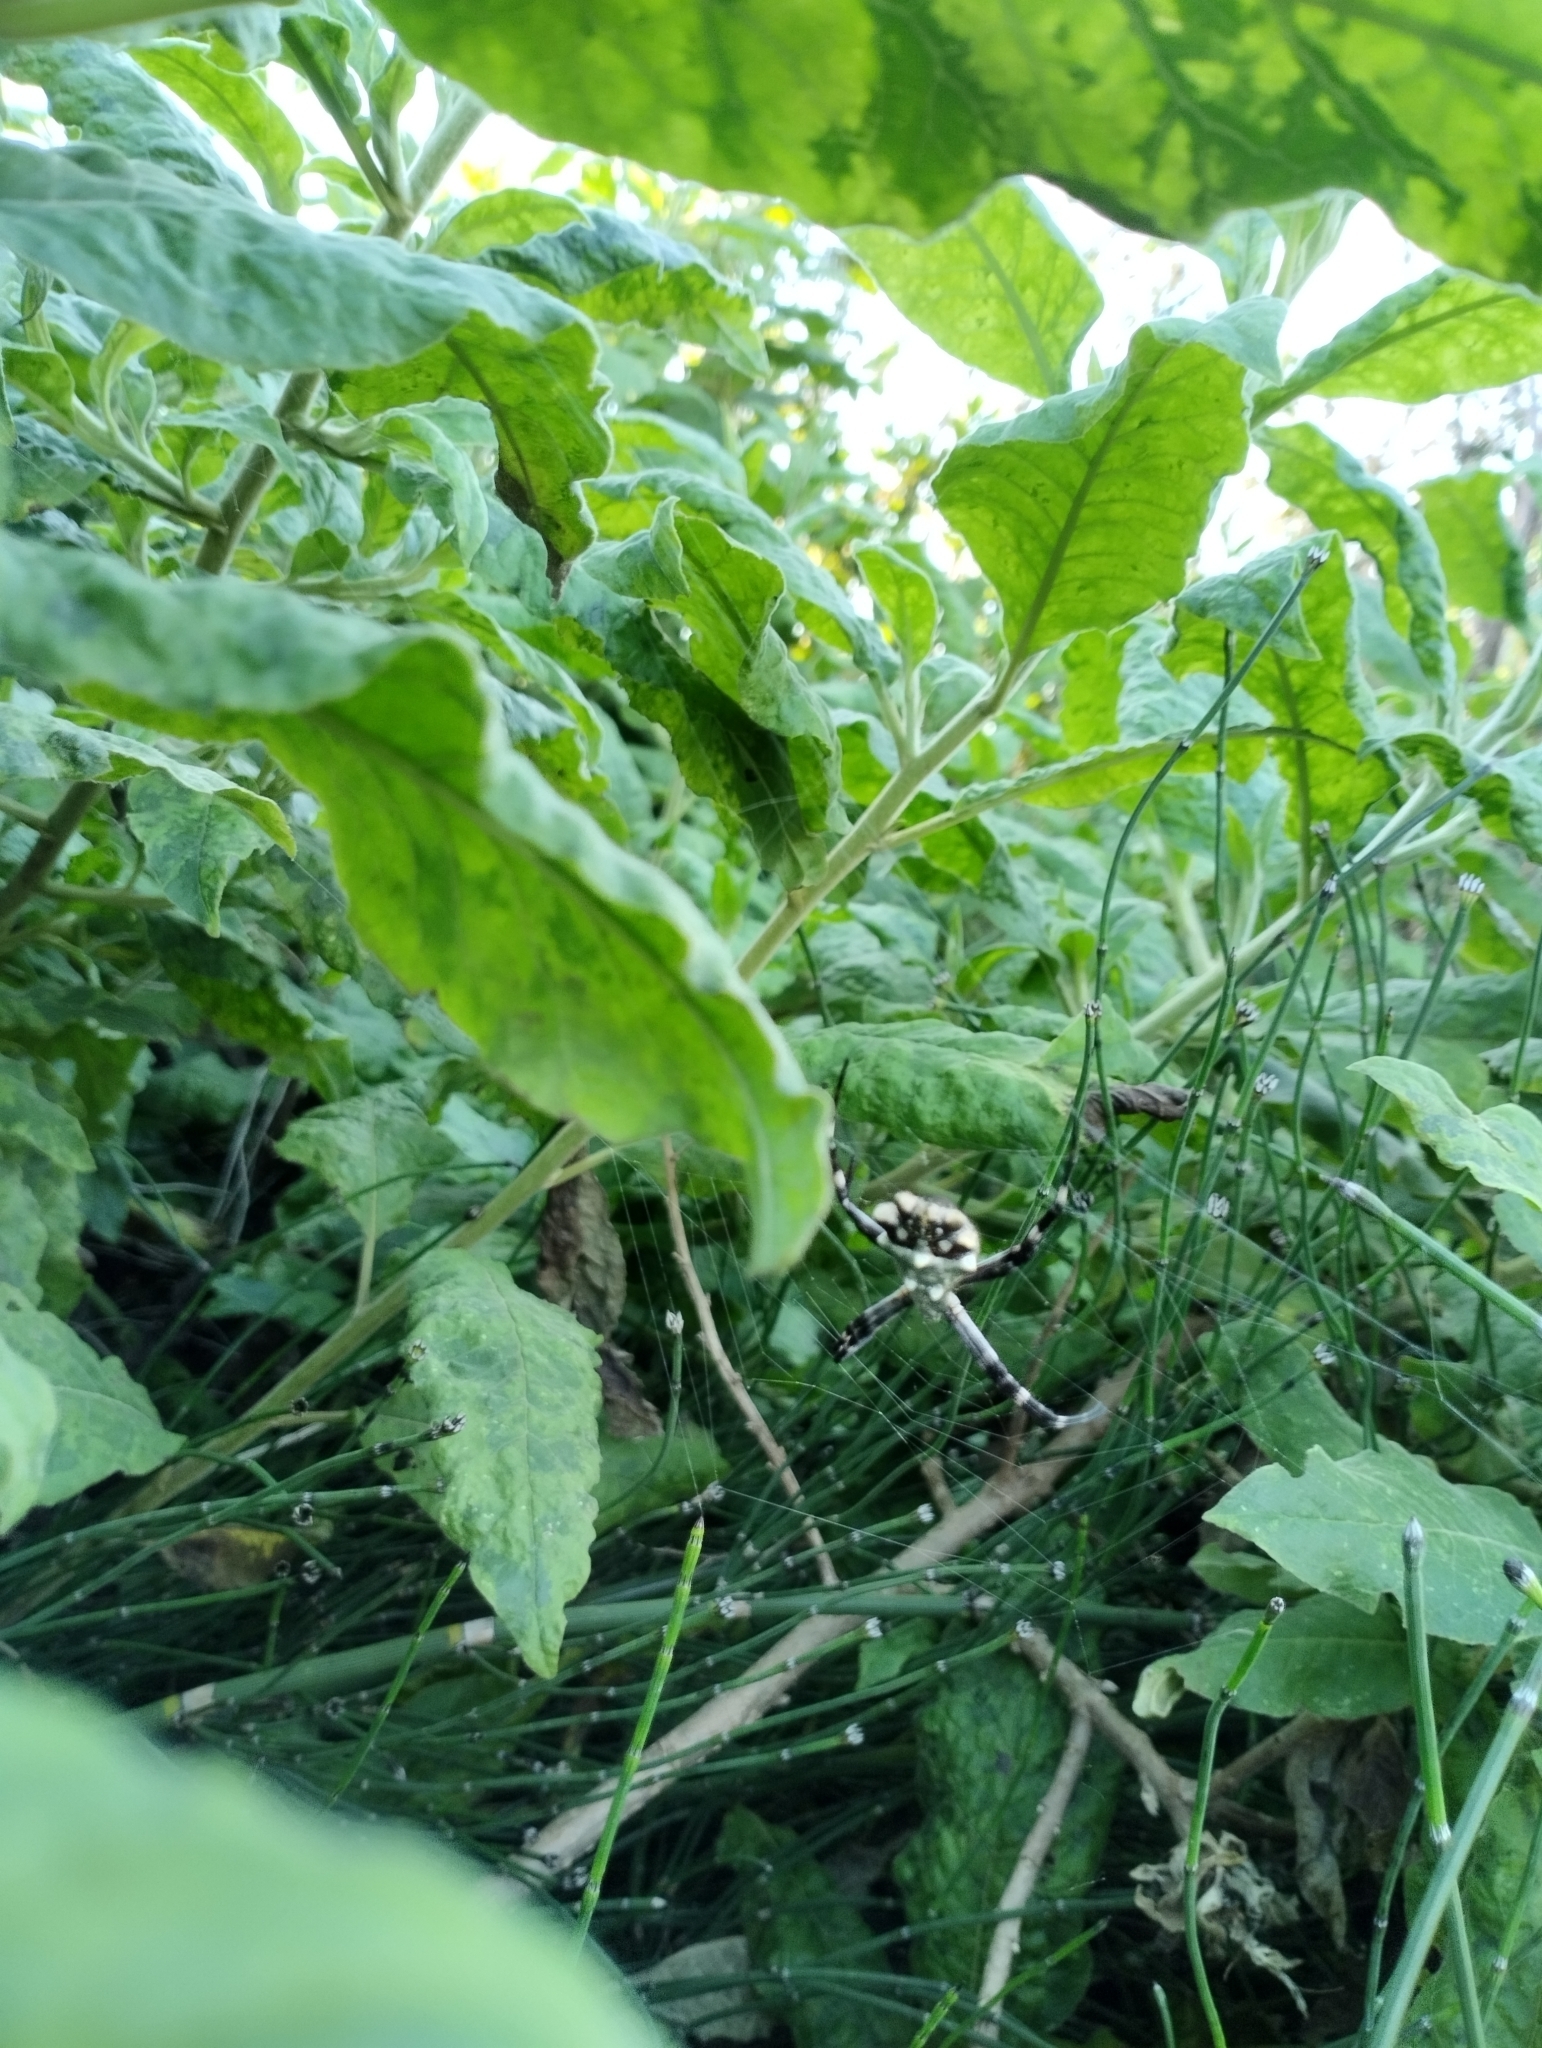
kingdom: Animalia
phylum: Arthropoda
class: Arachnida
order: Araneae
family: Araneidae
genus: Argiope
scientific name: Argiope argentata
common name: Orb weavers
